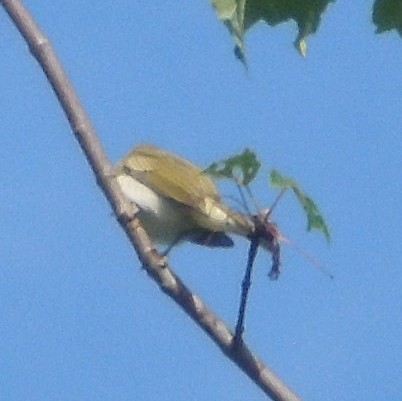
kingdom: Animalia
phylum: Chordata
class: Aves
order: Passeriformes
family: Vireonidae
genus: Vireo
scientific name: Vireo olivaceus
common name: Red-eyed vireo
